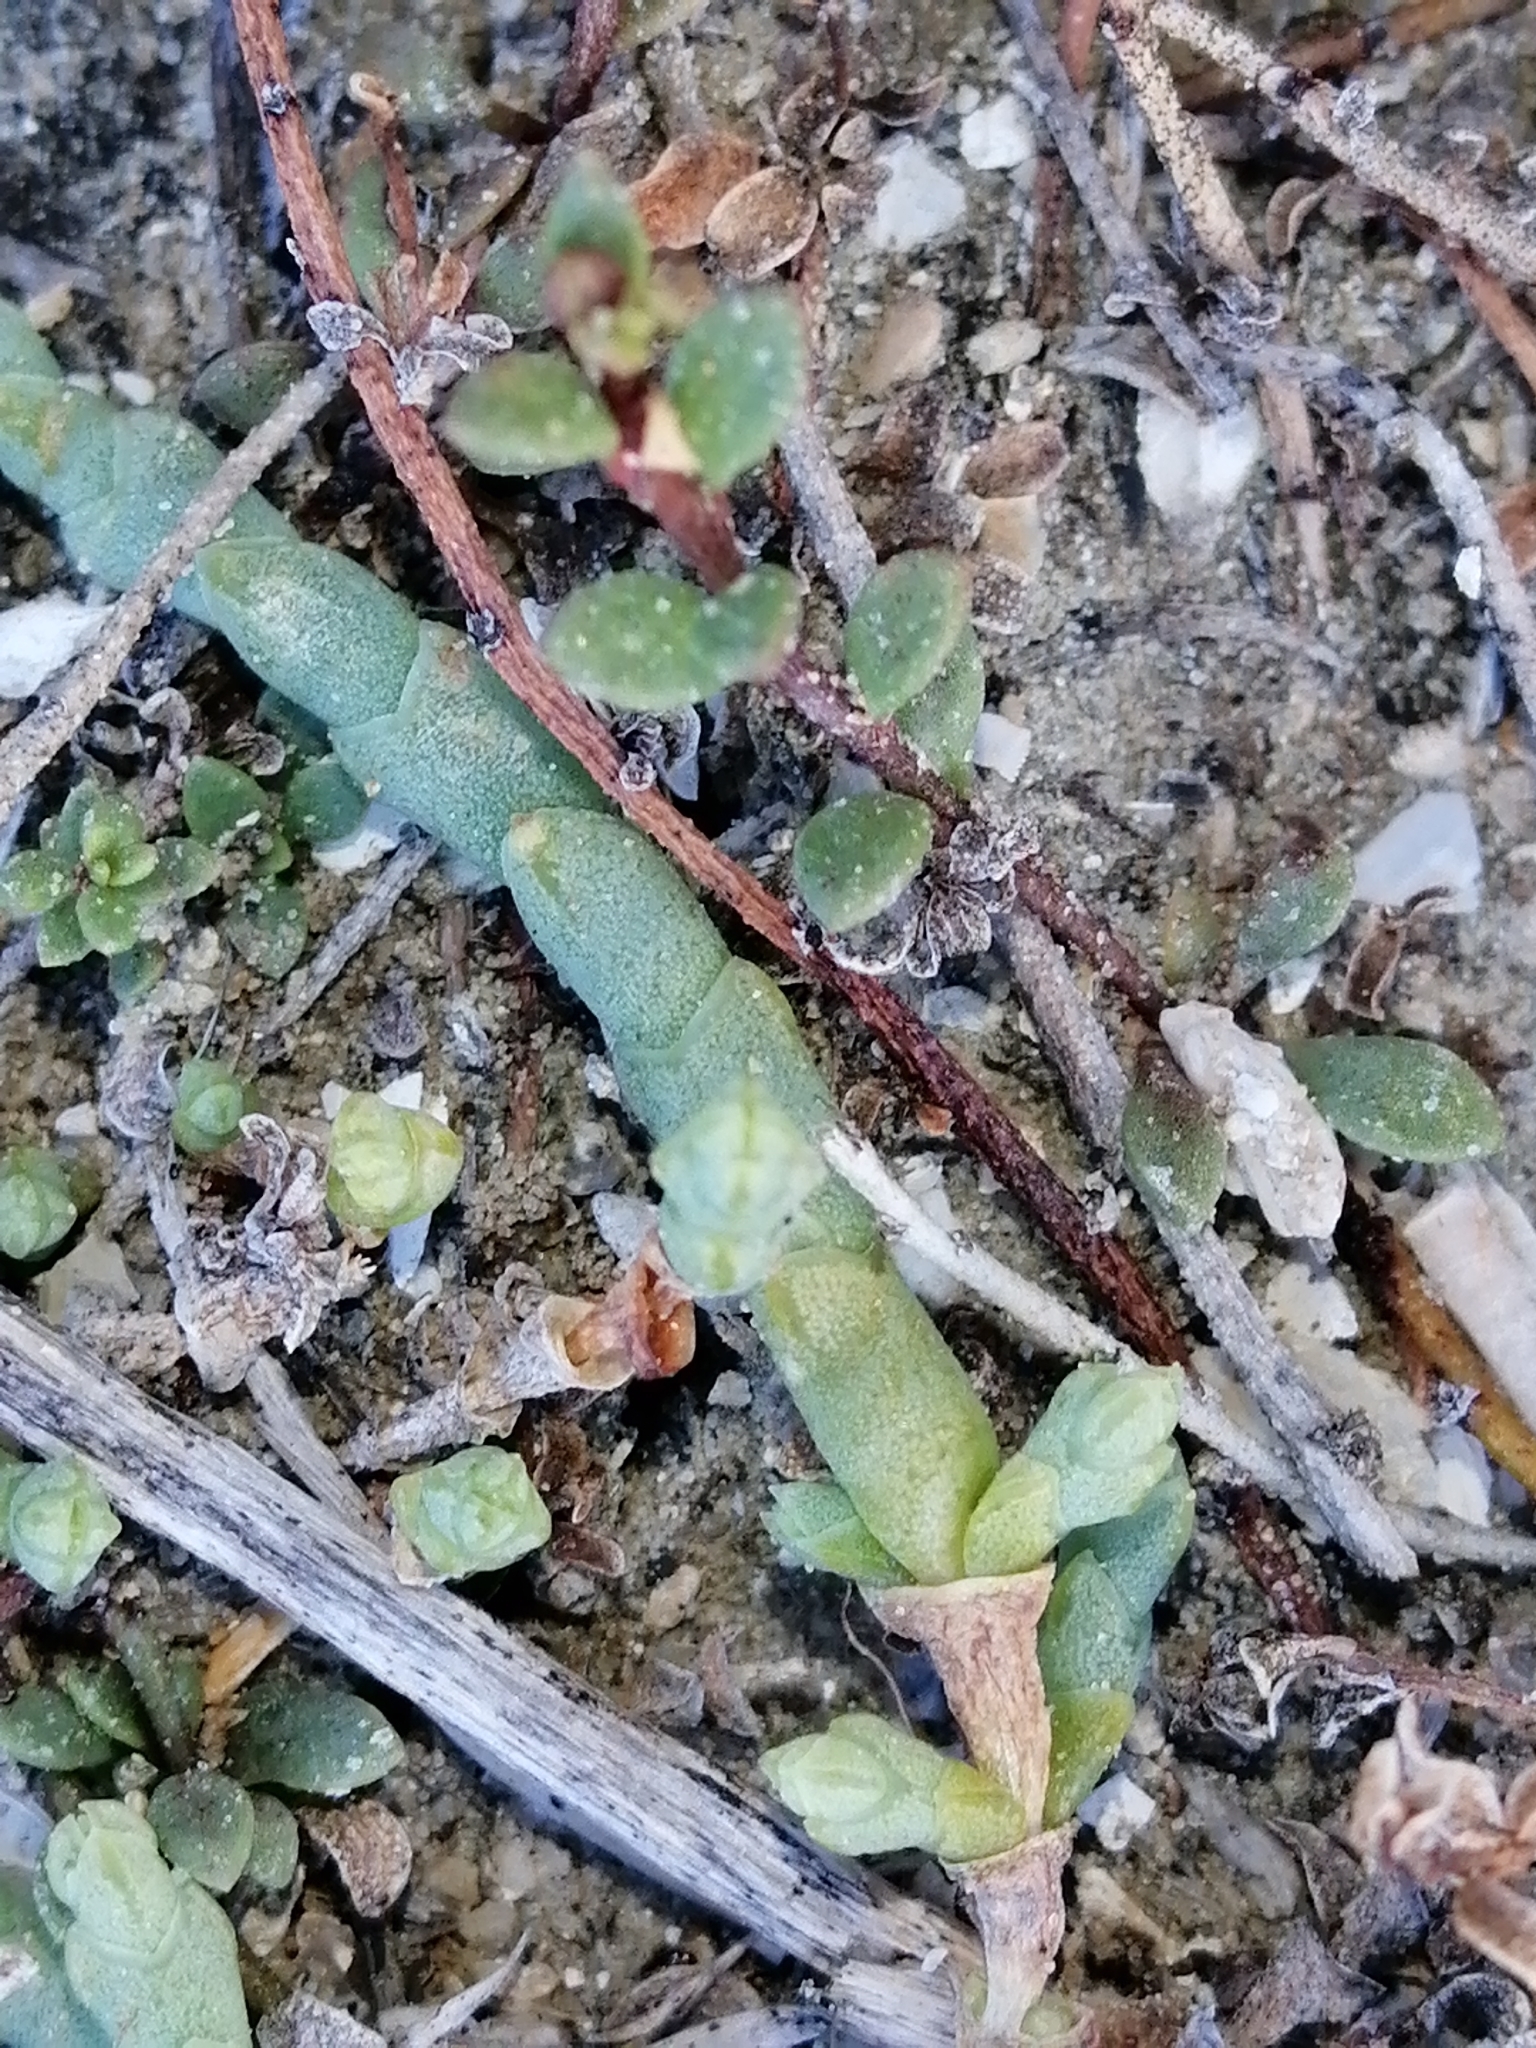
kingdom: Plantae
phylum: Tracheophyta
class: Magnoliopsida
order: Caryophyllales
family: Amaranthaceae
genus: Salicornia
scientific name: Salicornia quinqueflora
